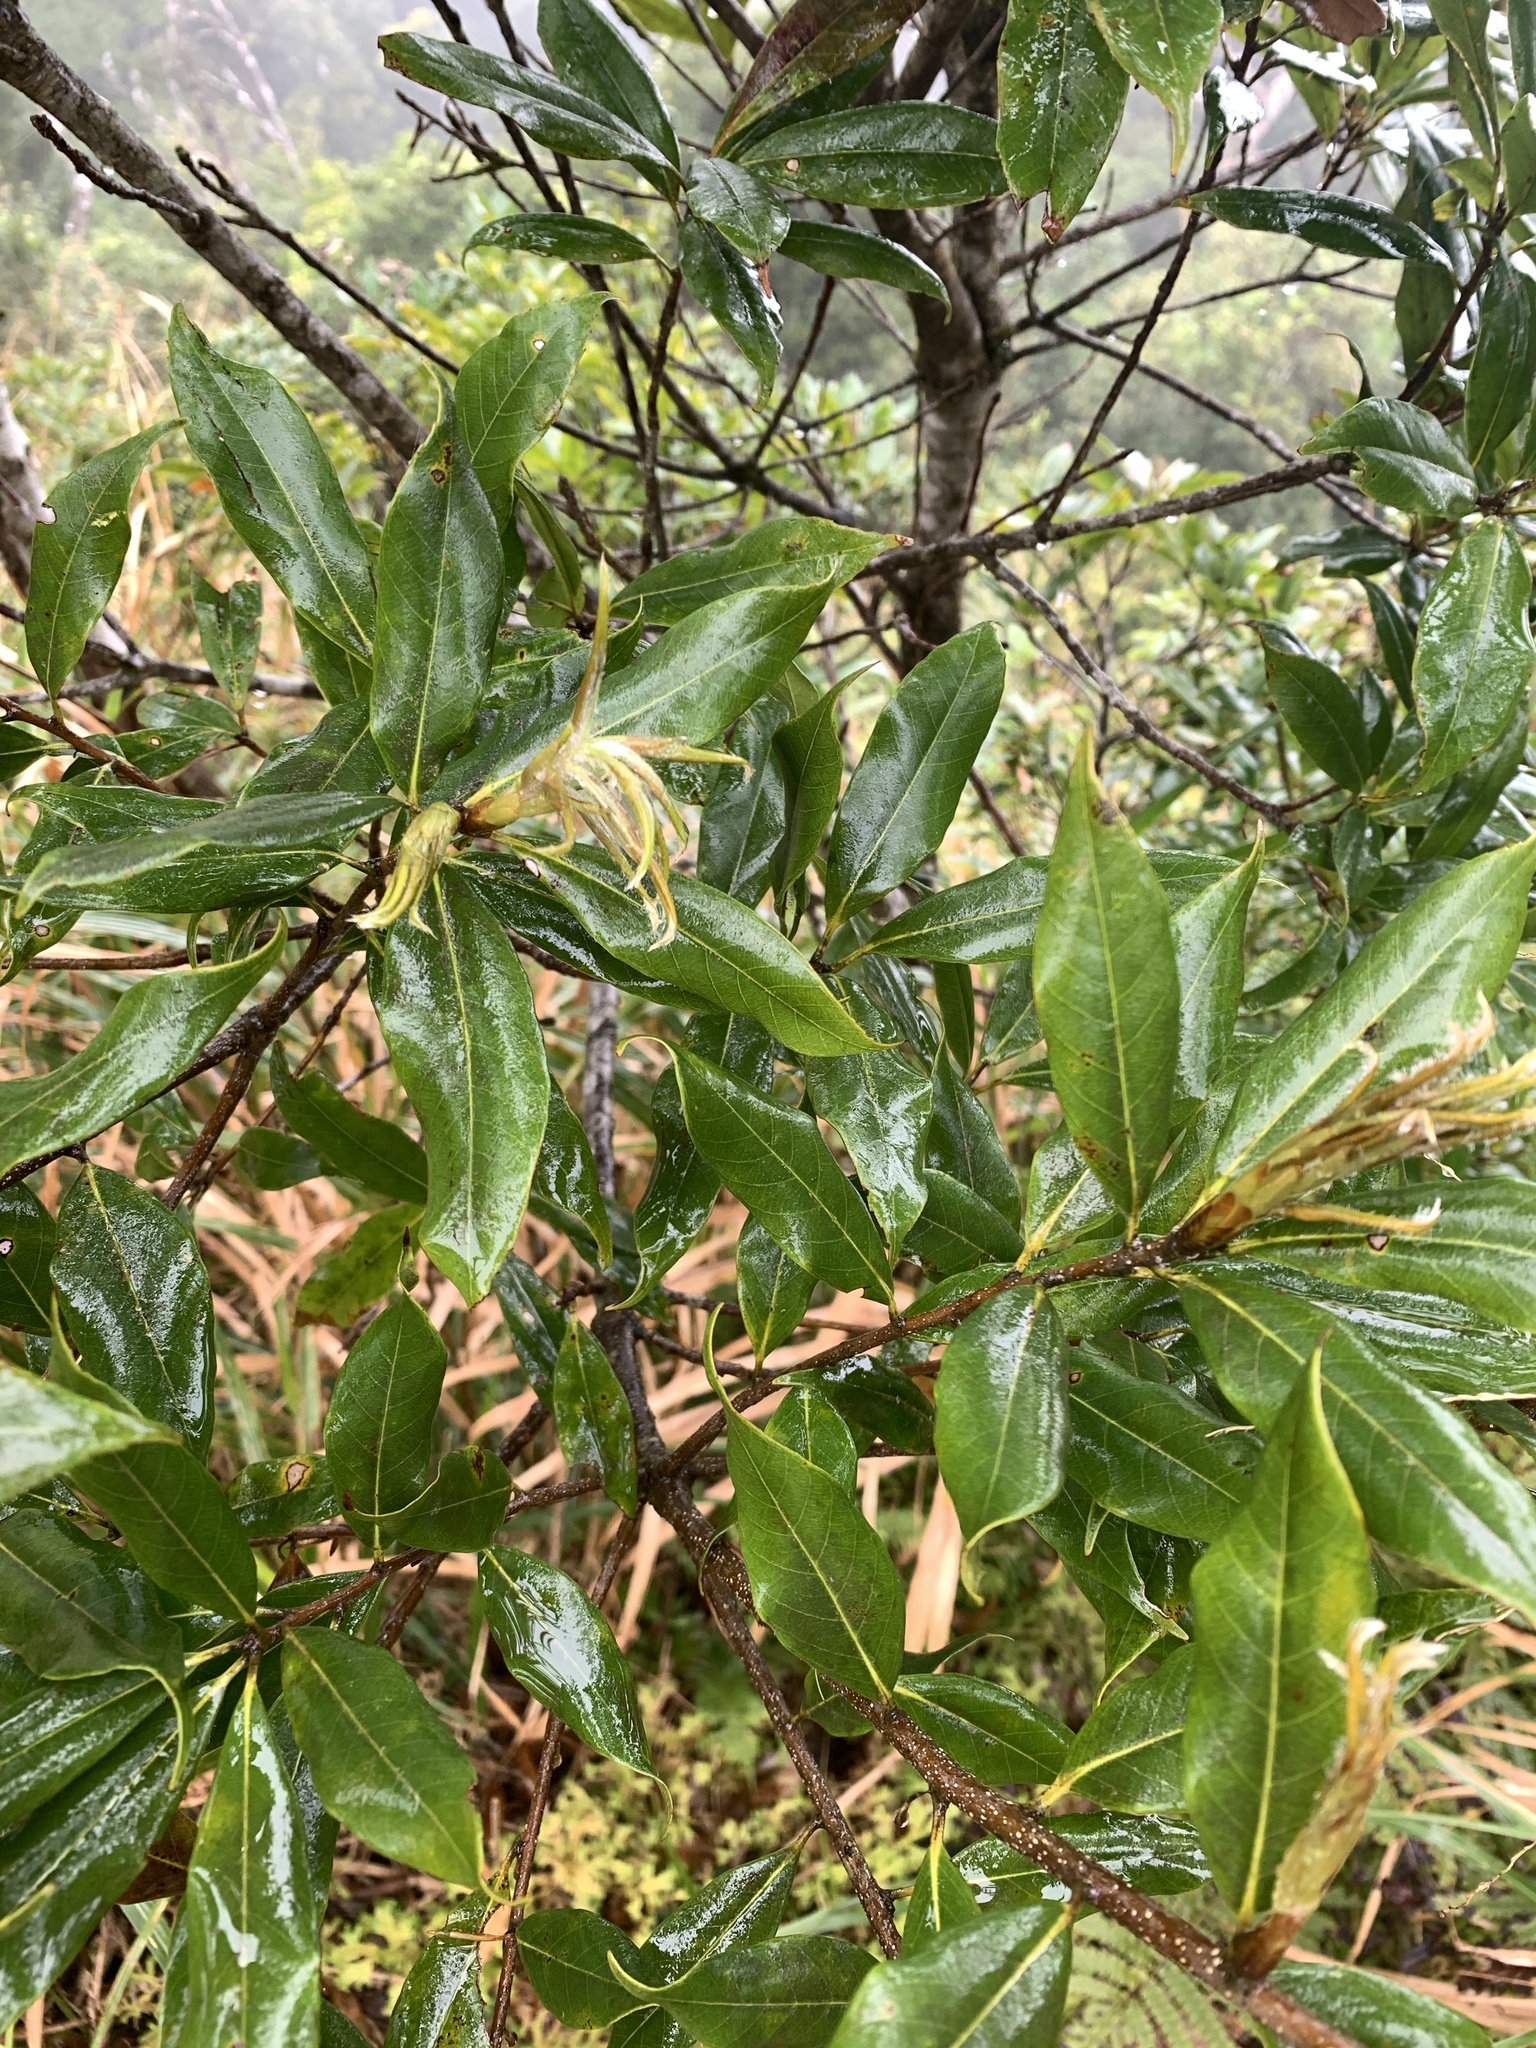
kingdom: Plantae
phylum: Tracheophyta
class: Magnoliopsida
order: Fagales
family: Fagaceae
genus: Quercus
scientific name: Quercus sessilifolia
